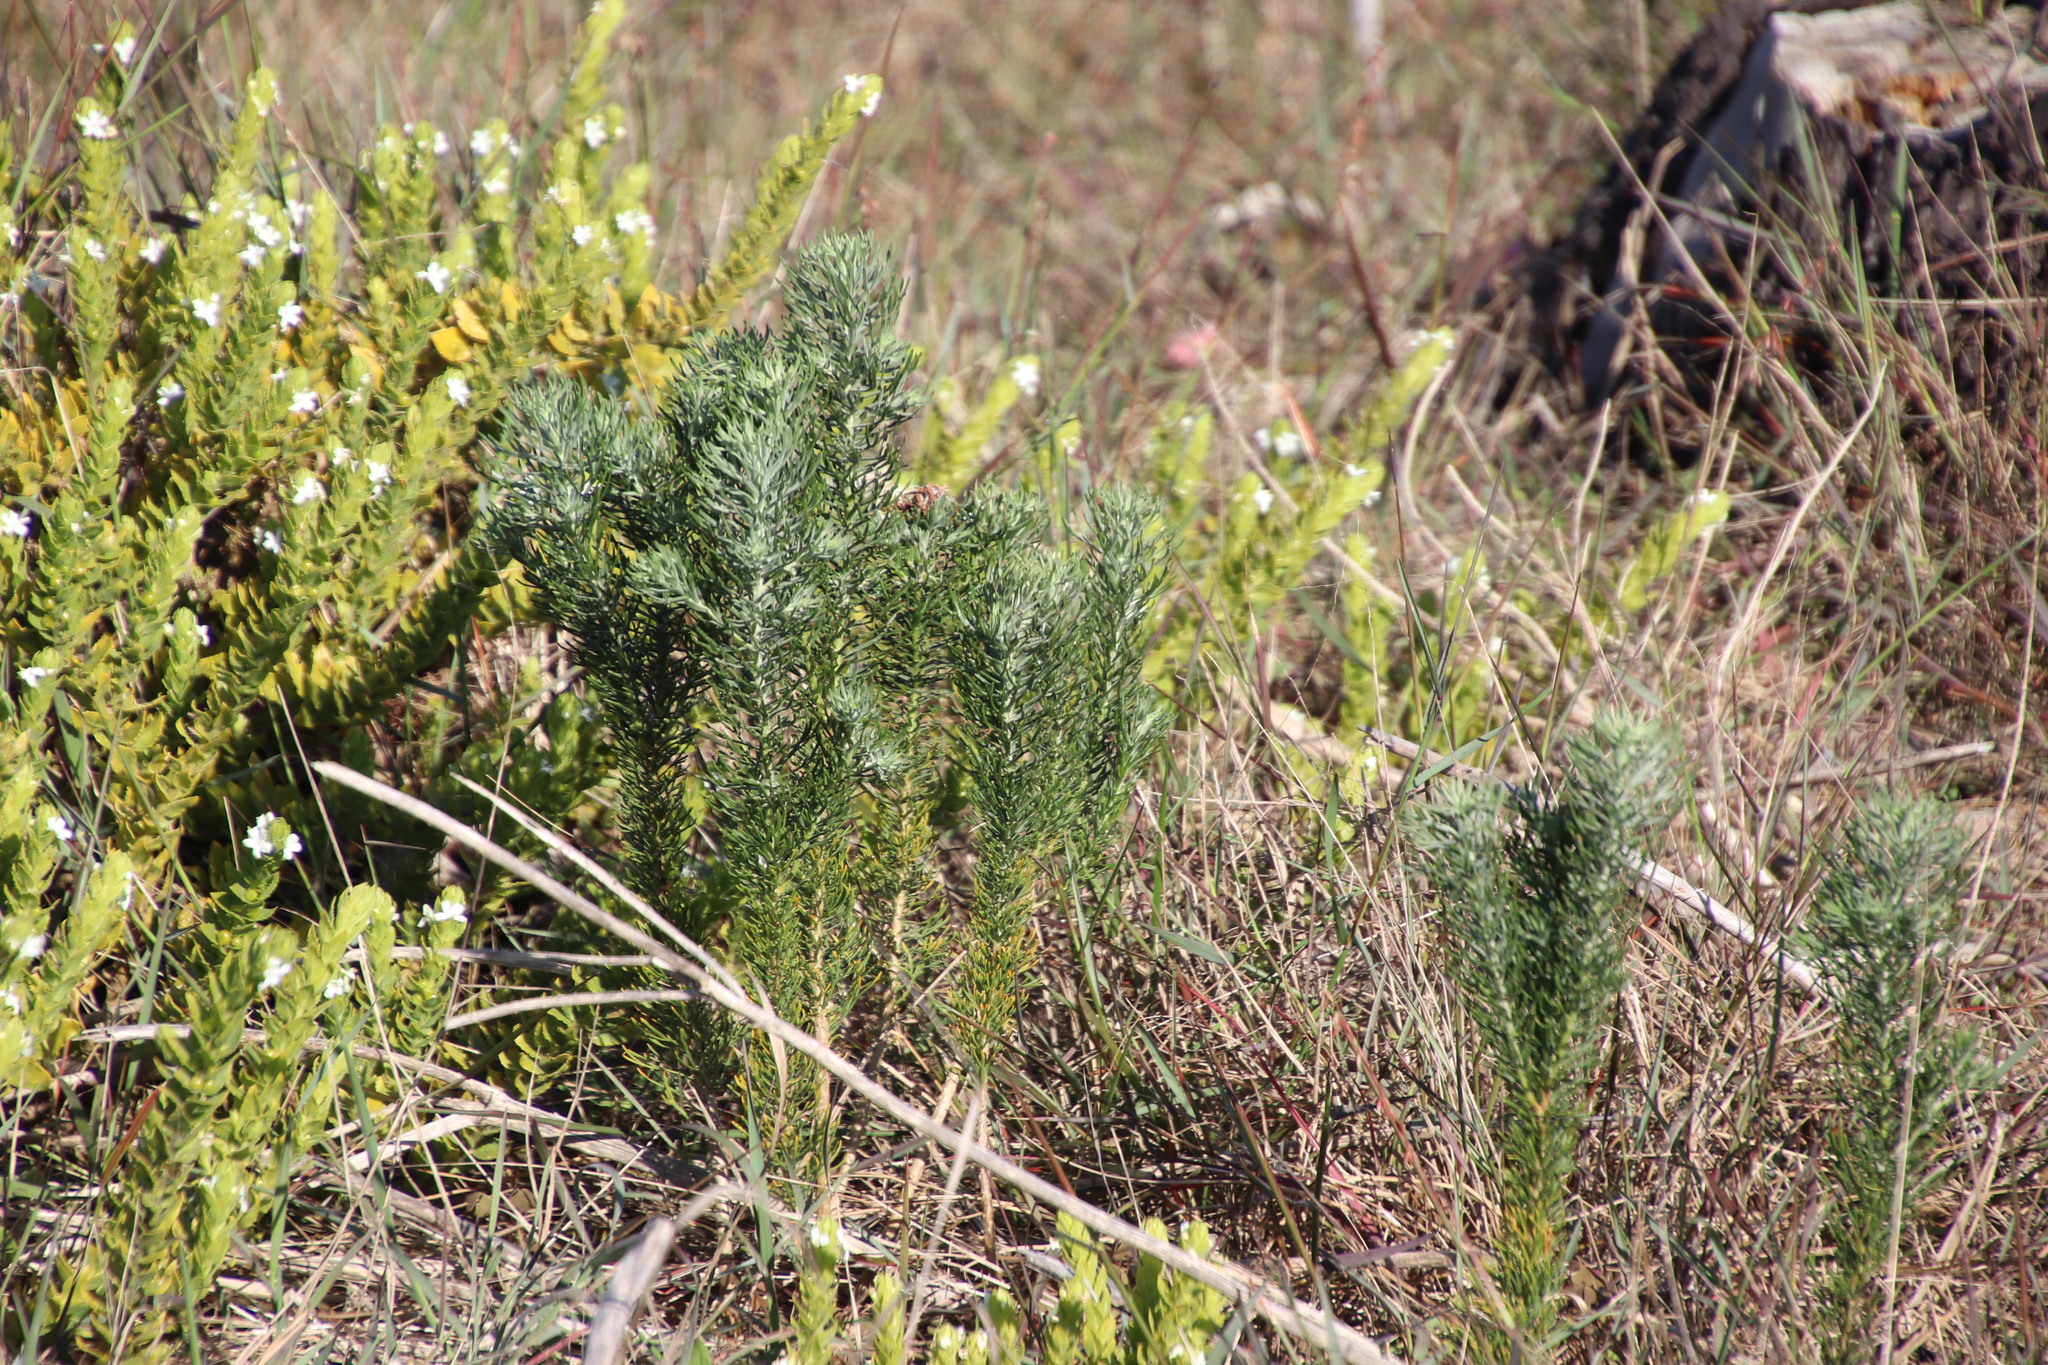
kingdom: Plantae
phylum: Tracheophyta
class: Magnoliopsida
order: Asterales
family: Asteraceae
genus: Athanasia
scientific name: Athanasia crithmifolia
